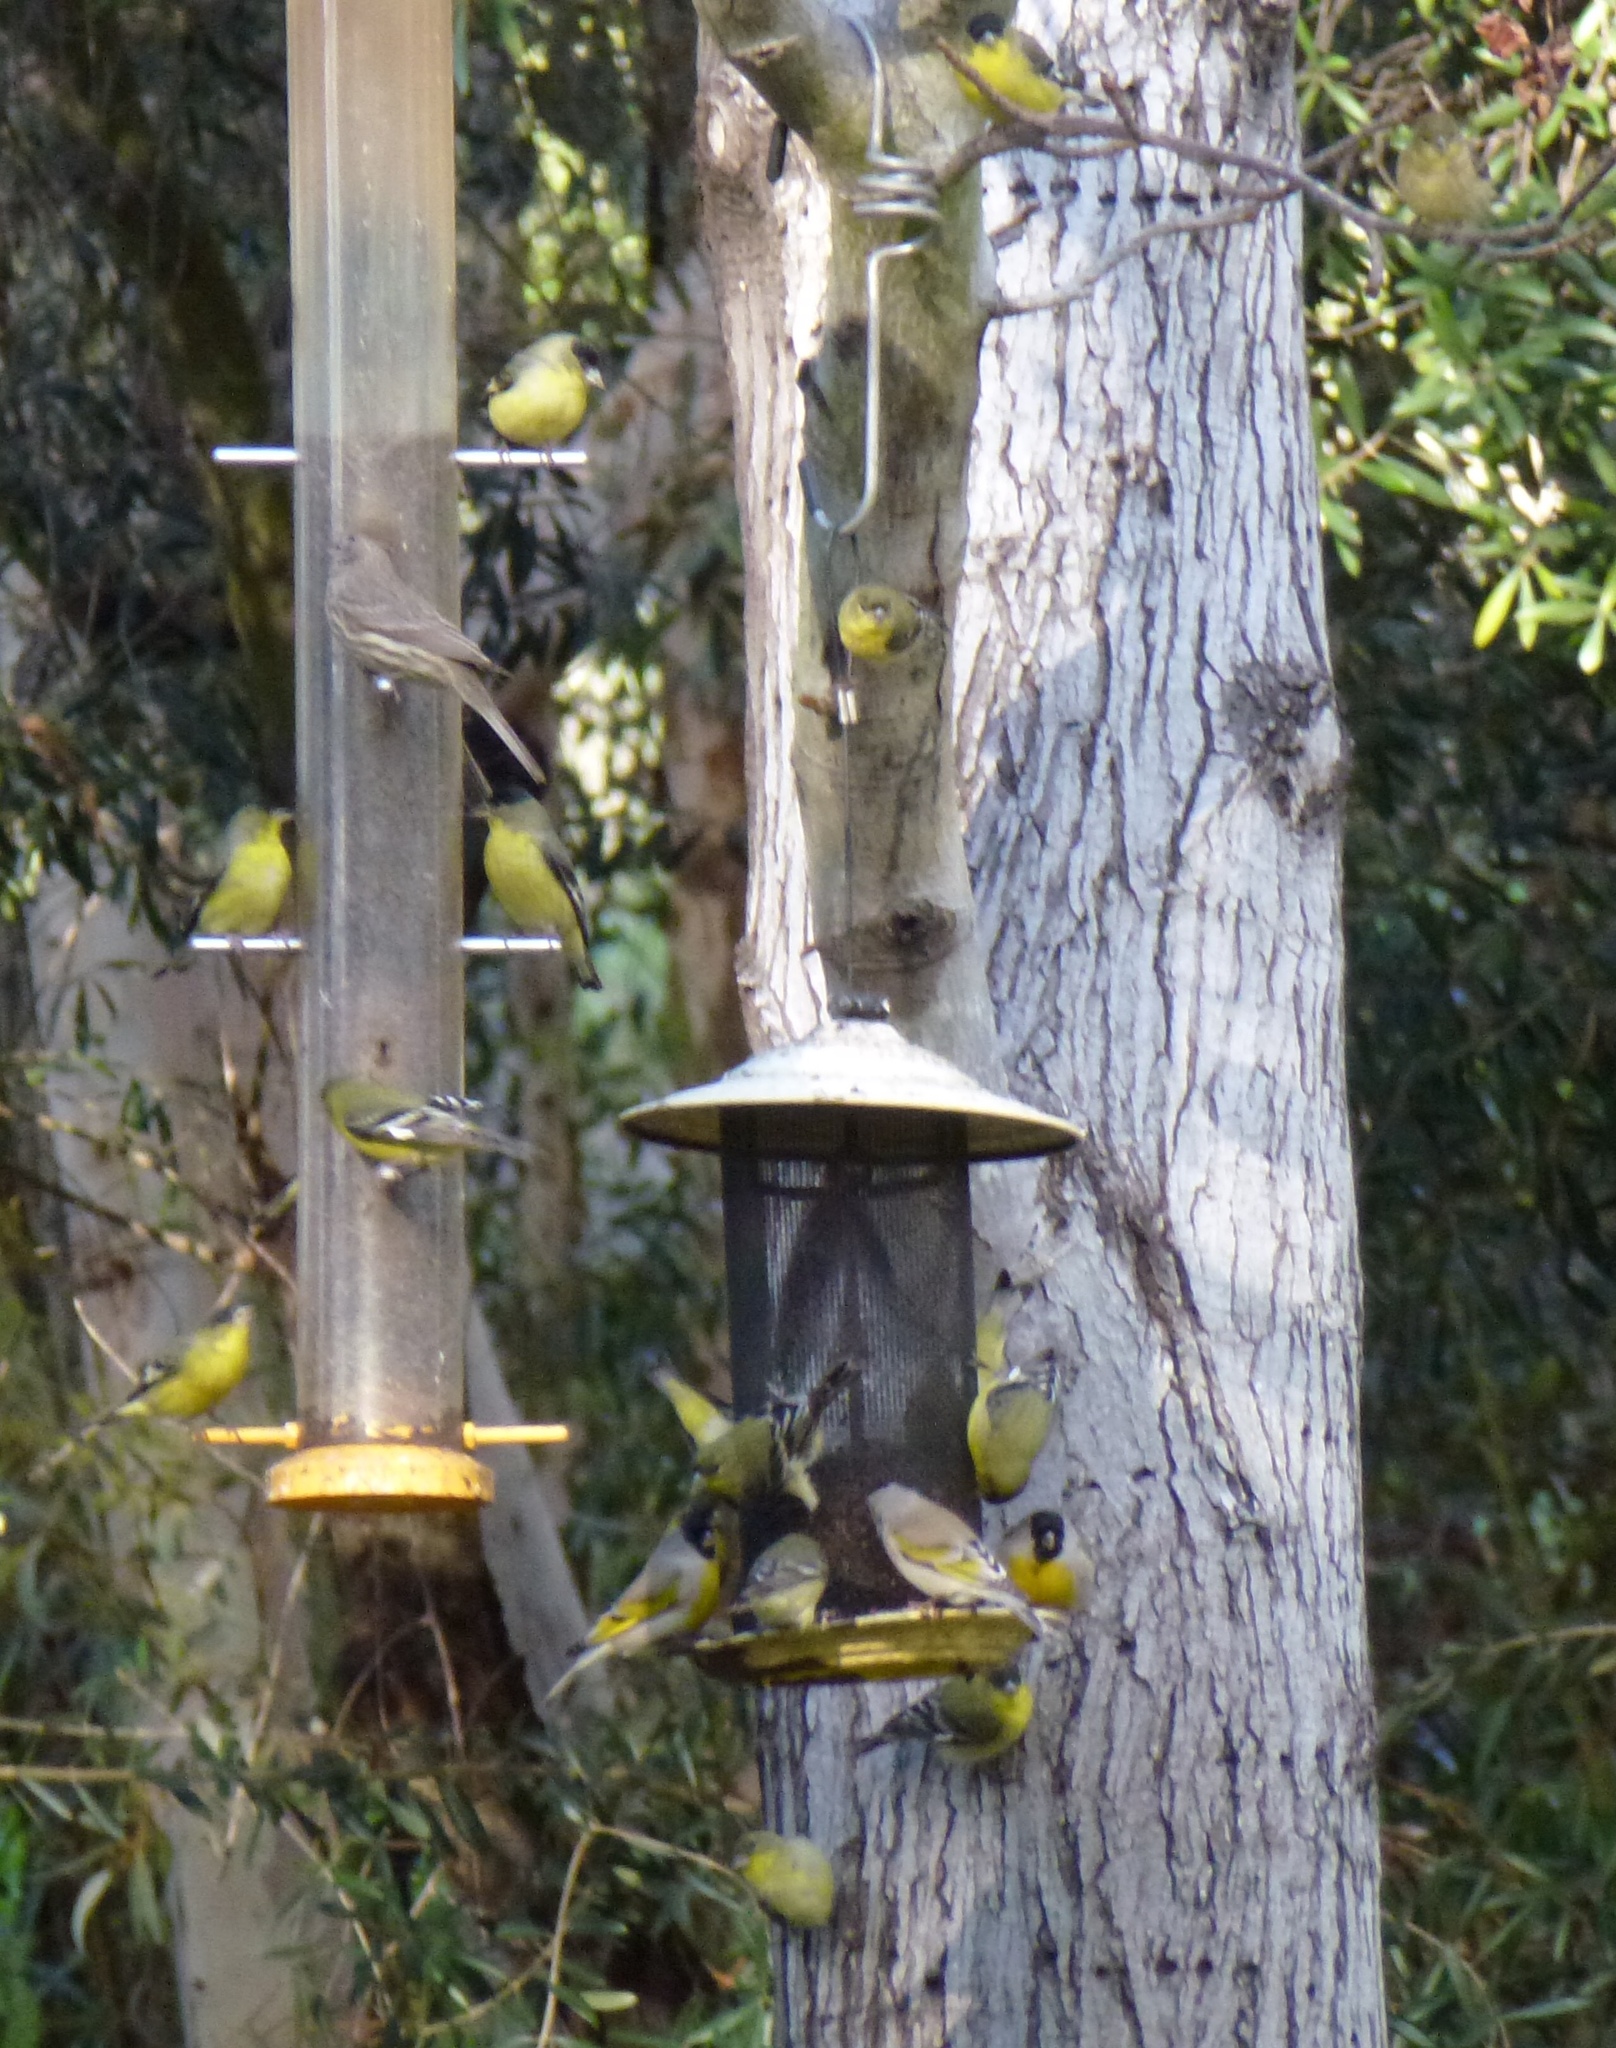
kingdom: Animalia
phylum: Chordata
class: Aves
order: Passeriformes
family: Fringillidae
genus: Spinus
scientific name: Spinus psaltria
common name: Lesser goldfinch
